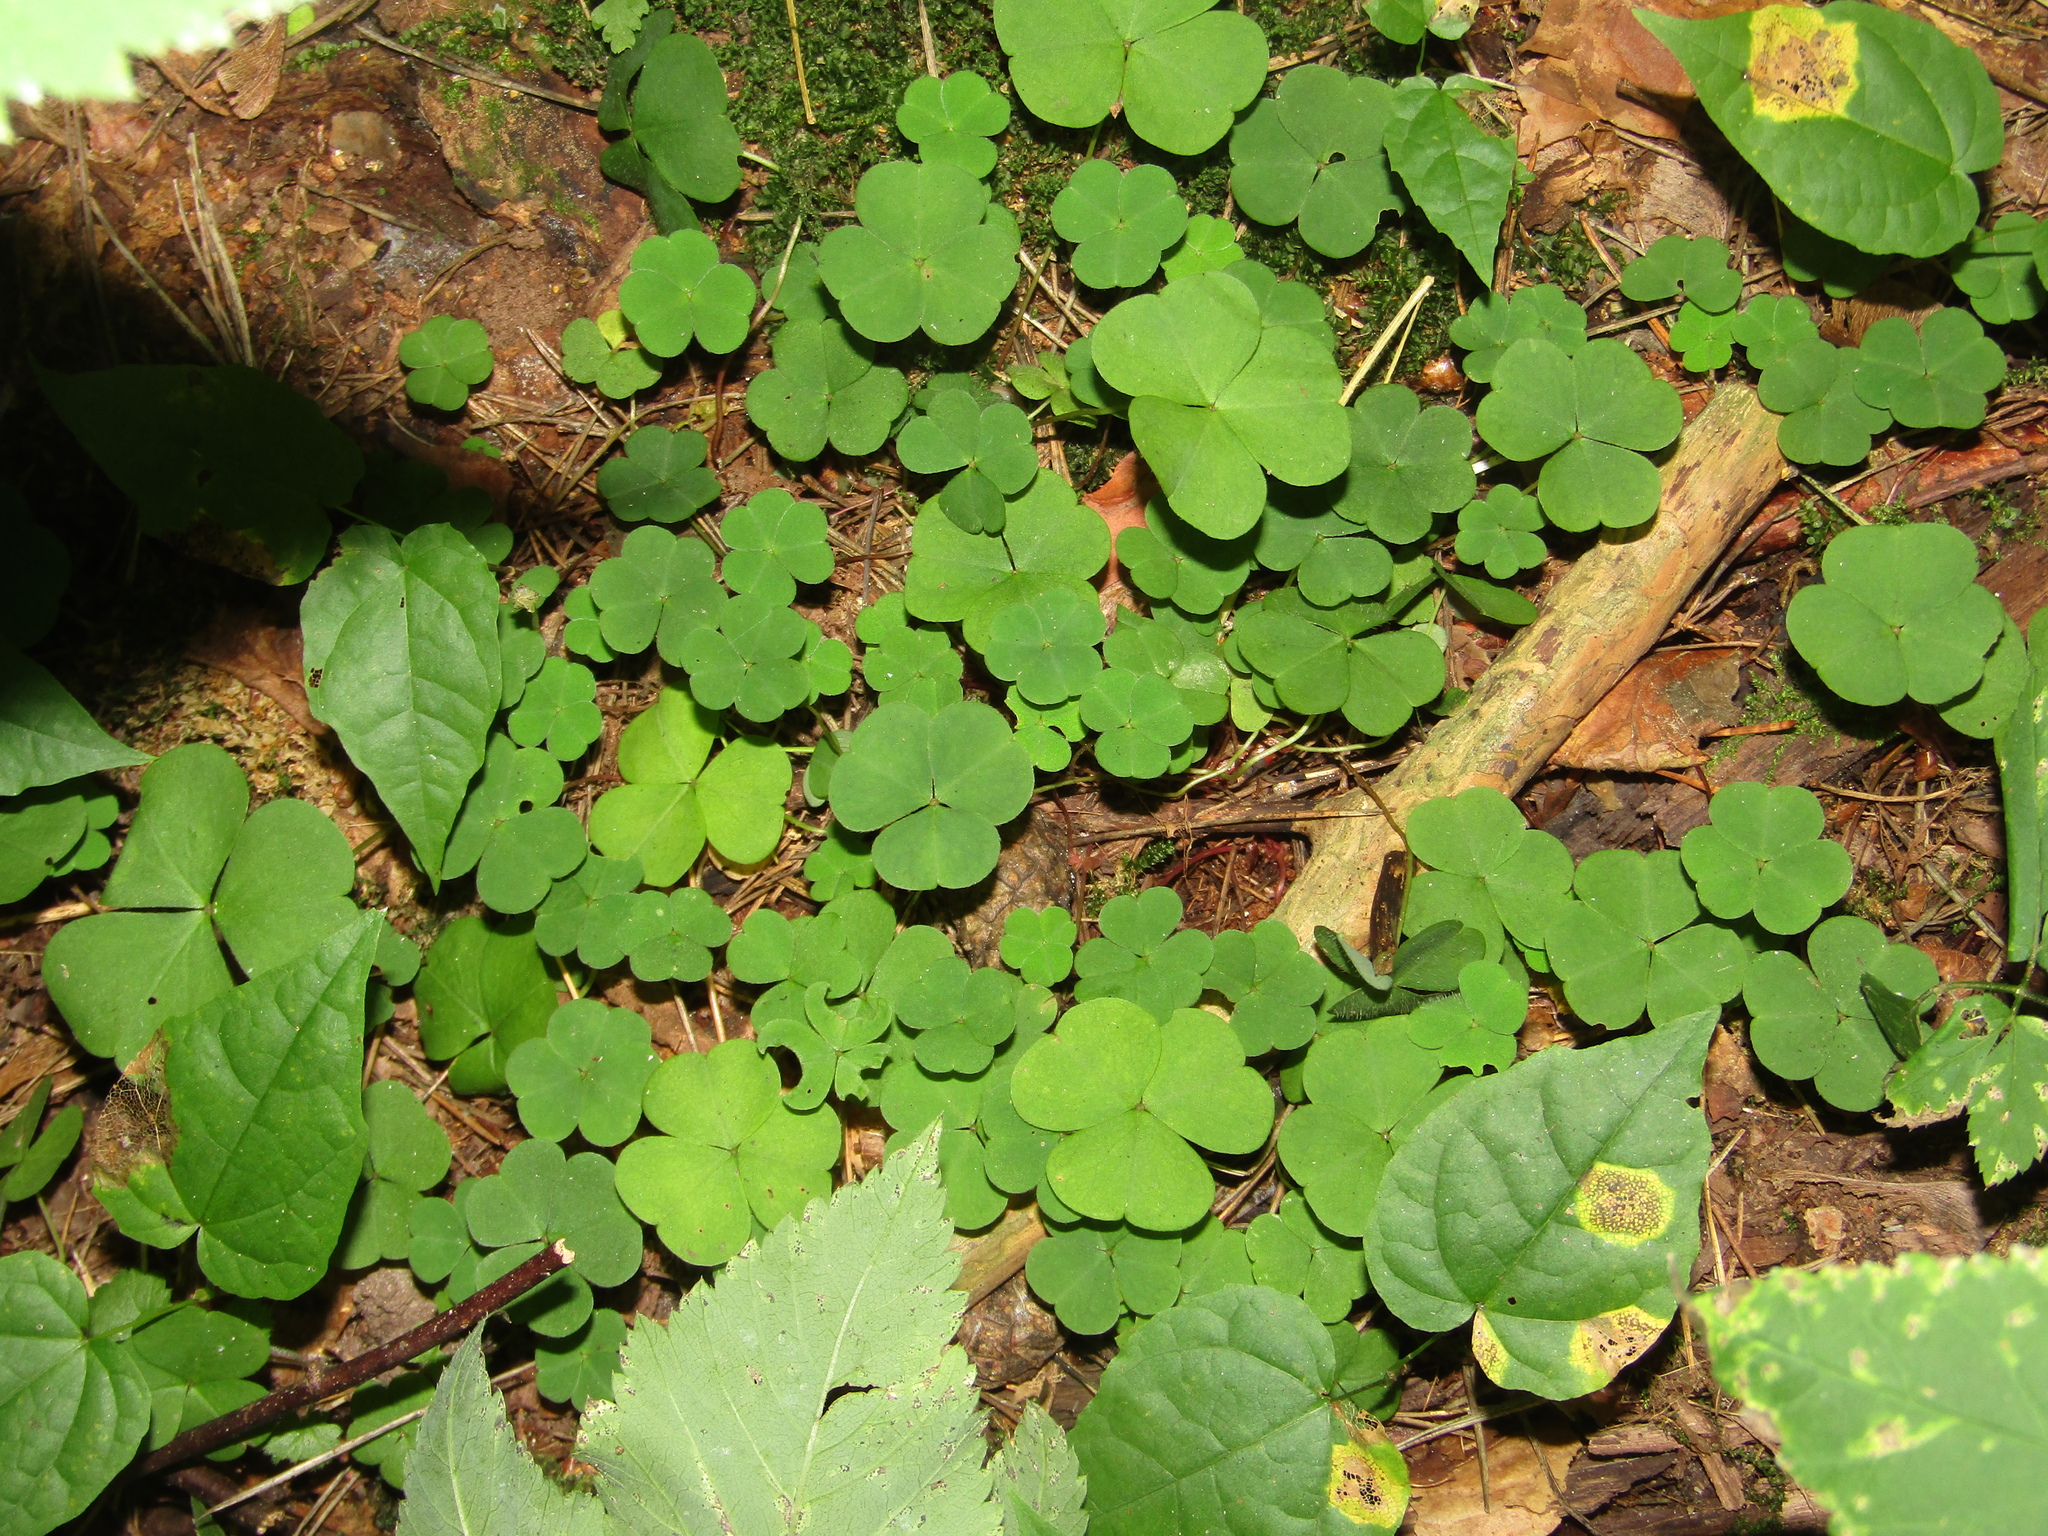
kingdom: Plantae
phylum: Tracheophyta
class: Magnoliopsida
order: Oxalidales
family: Oxalidaceae
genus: Oxalis
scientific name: Oxalis acetosella
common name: Wood-sorrel
